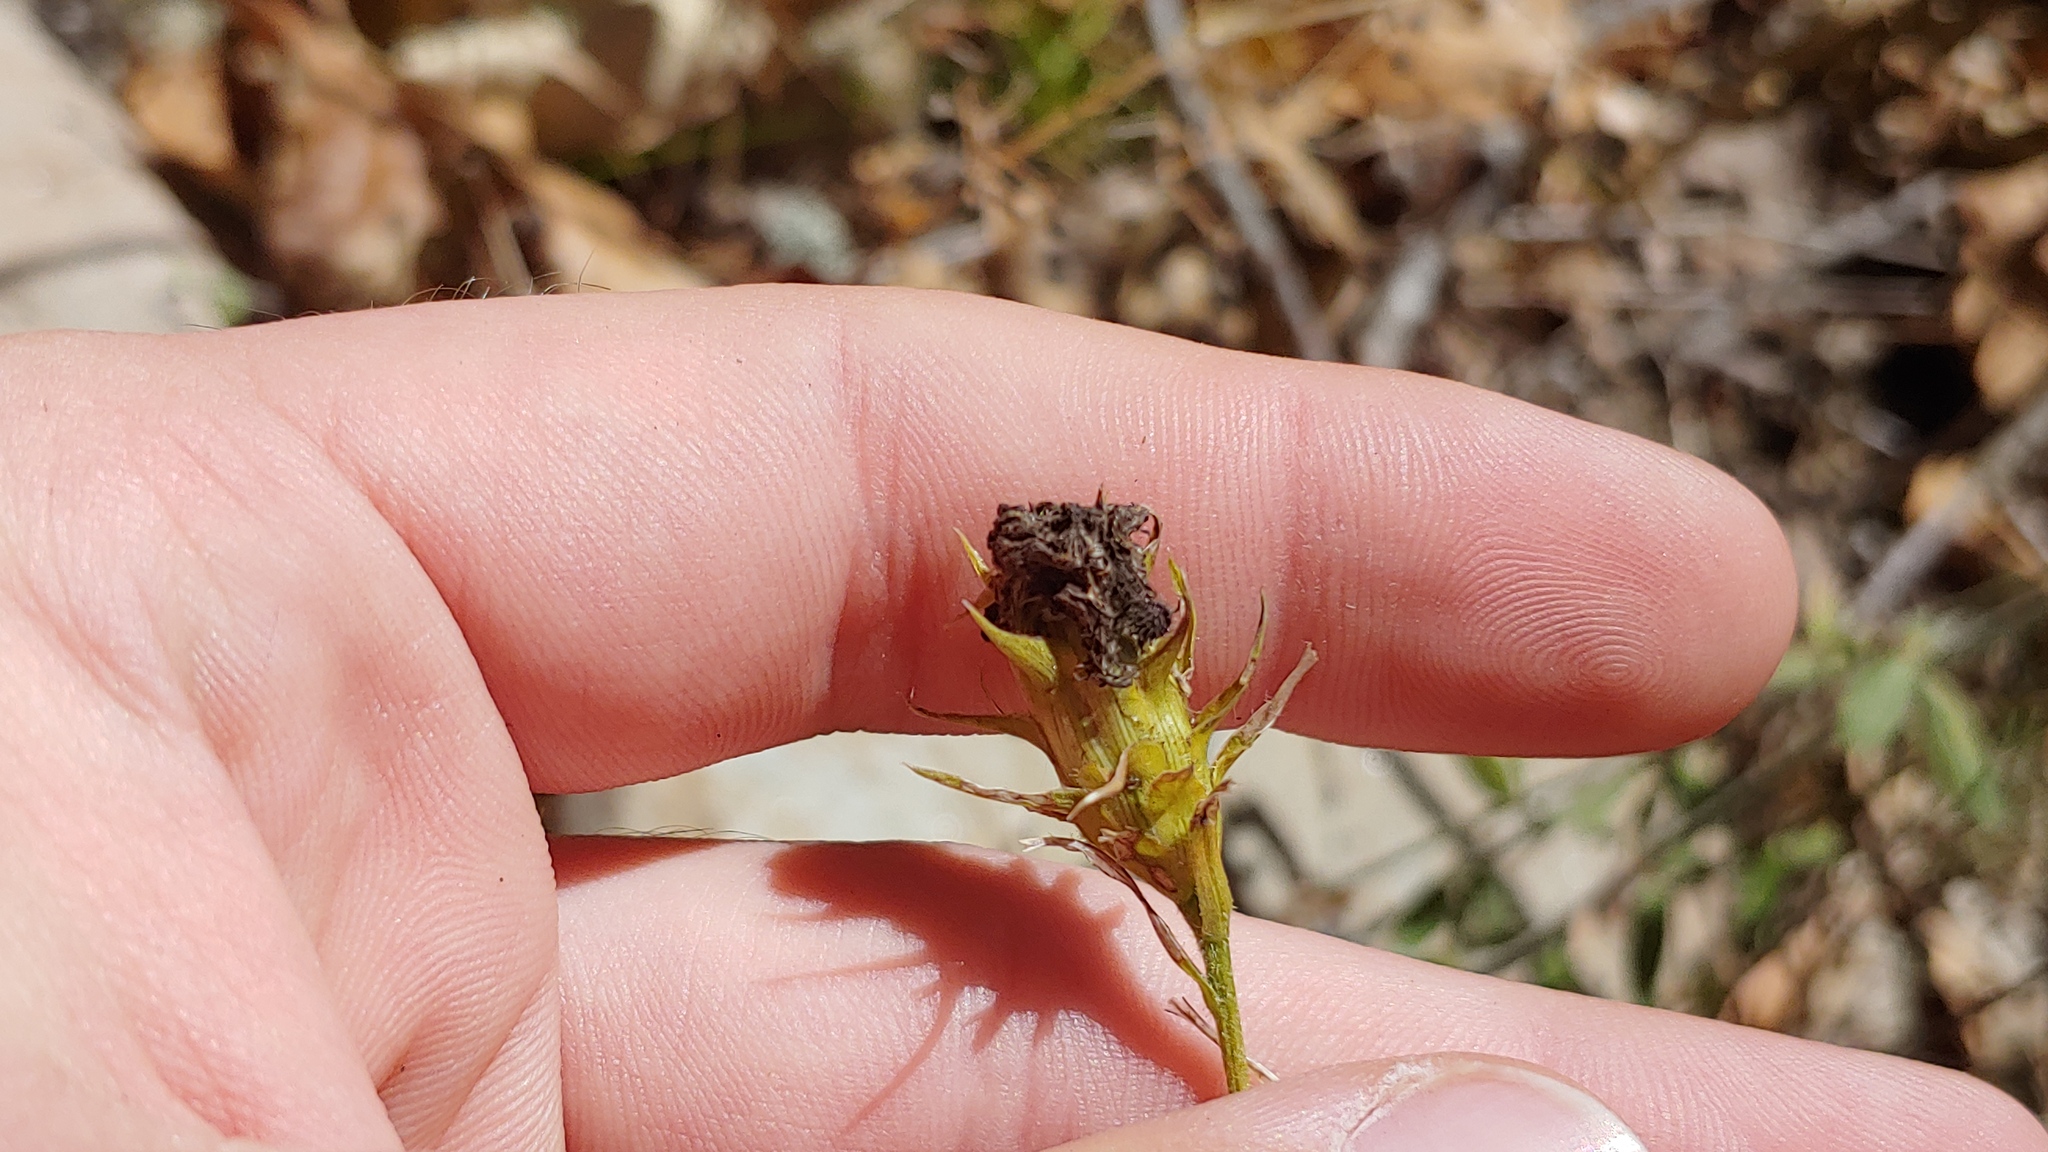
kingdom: Plantae
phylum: Tracheophyta
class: Magnoliopsida
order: Asterales
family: Asteraceae
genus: Liatris
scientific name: Liatris squarrosa
